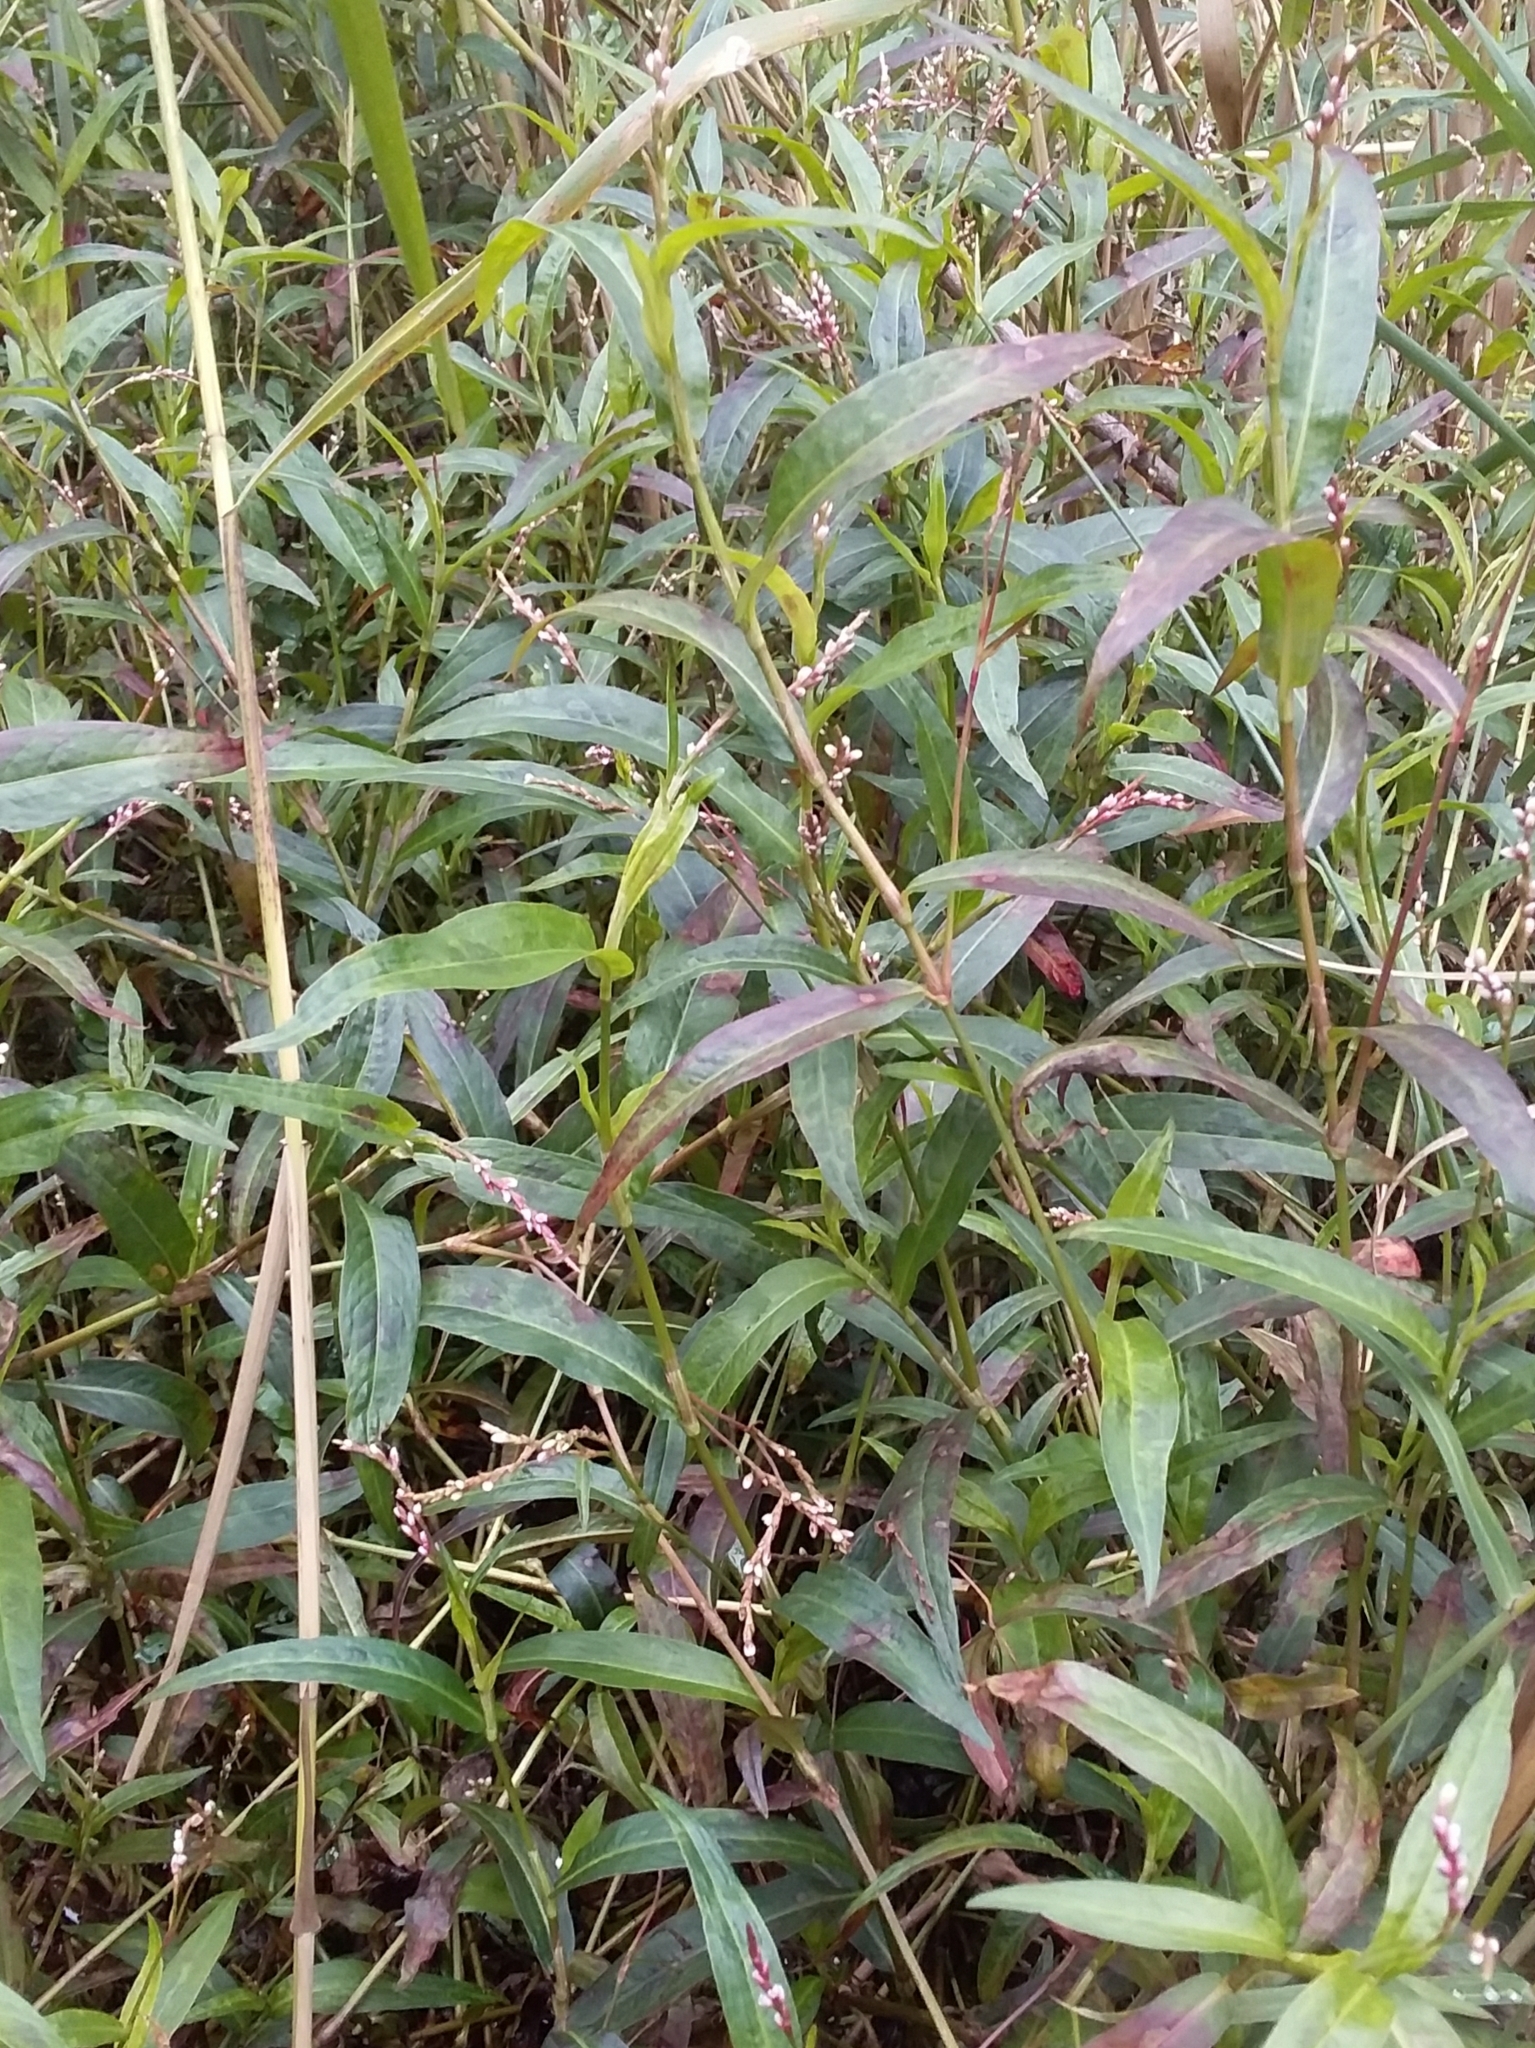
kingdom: Plantae
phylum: Tracheophyta
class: Magnoliopsida
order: Caryophyllales
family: Polygonaceae
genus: Persicaria
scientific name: Persicaria decipiens
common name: Willow-weed
